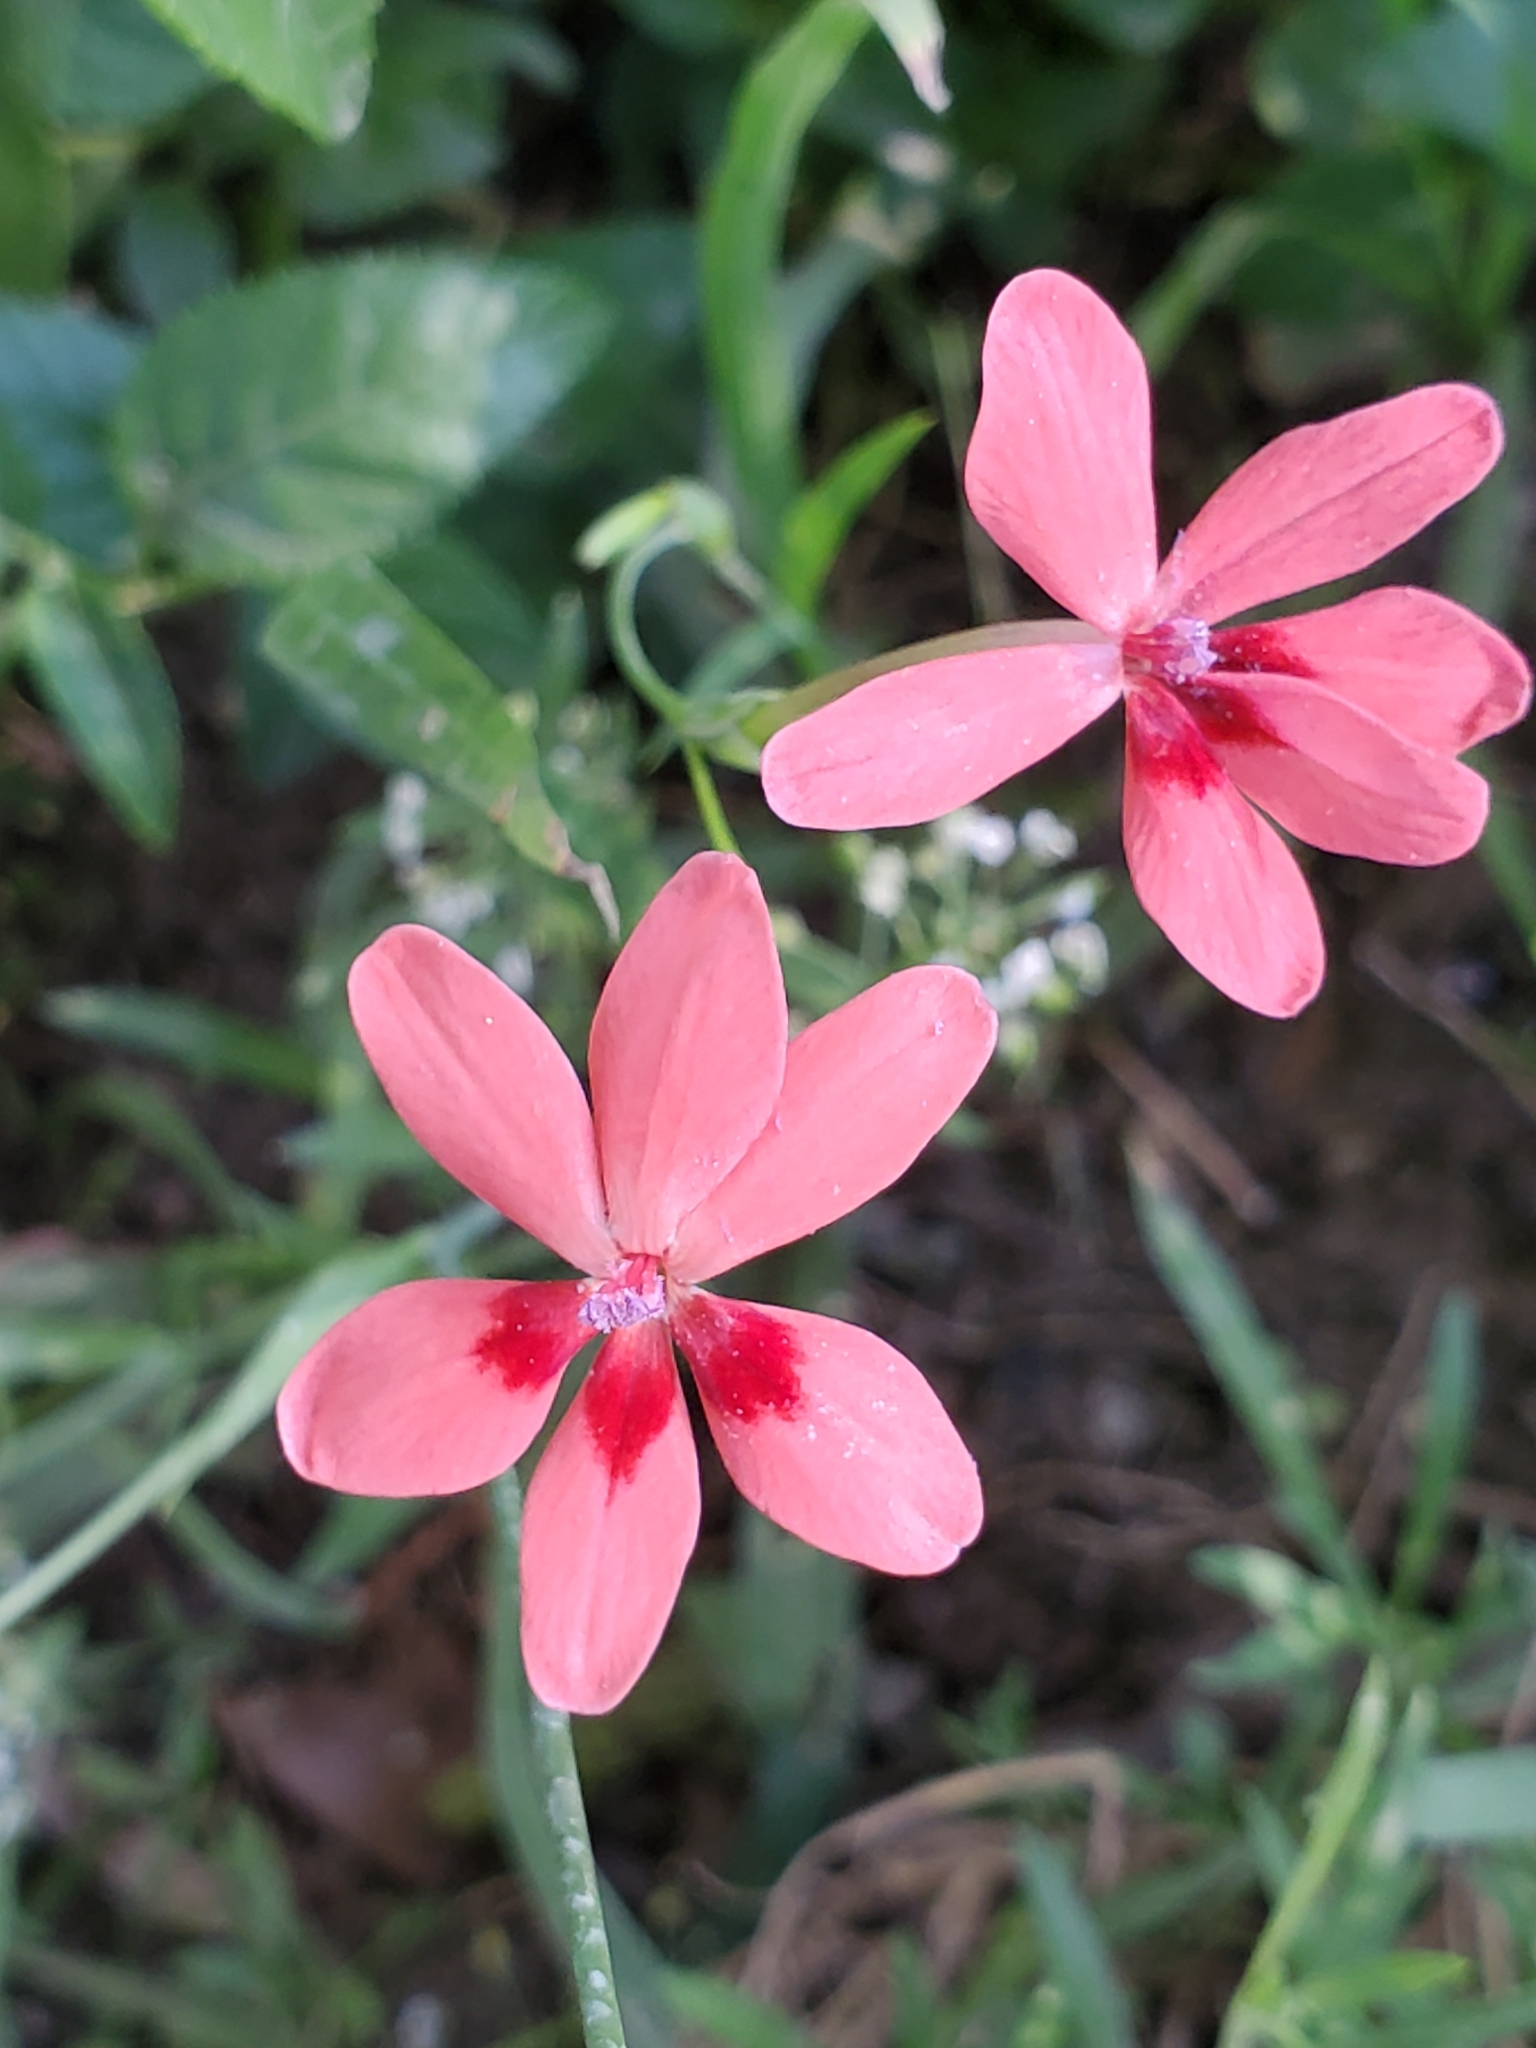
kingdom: Plantae
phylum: Tracheophyta
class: Liliopsida
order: Asparagales
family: Iridaceae
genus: Freesia
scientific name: Freesia laxa
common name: False freesia
